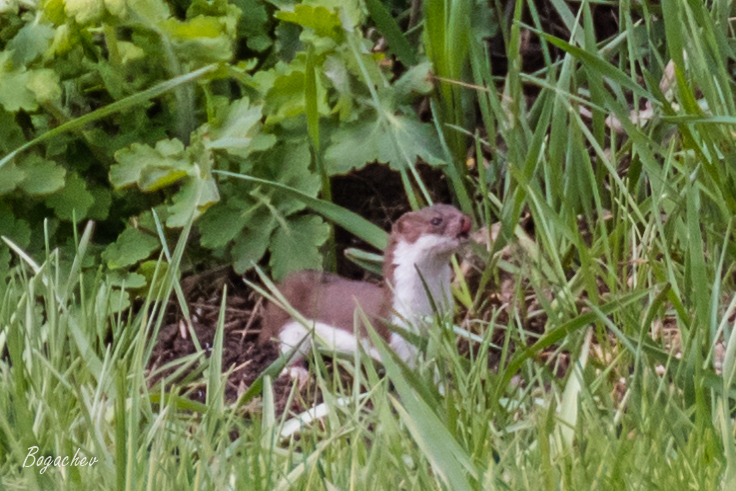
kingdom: Animalia
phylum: Chordata
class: Mammalia
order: Carnivora
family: Mustelidae
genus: Mustela
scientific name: Mustela nivalis
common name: Least weasel
